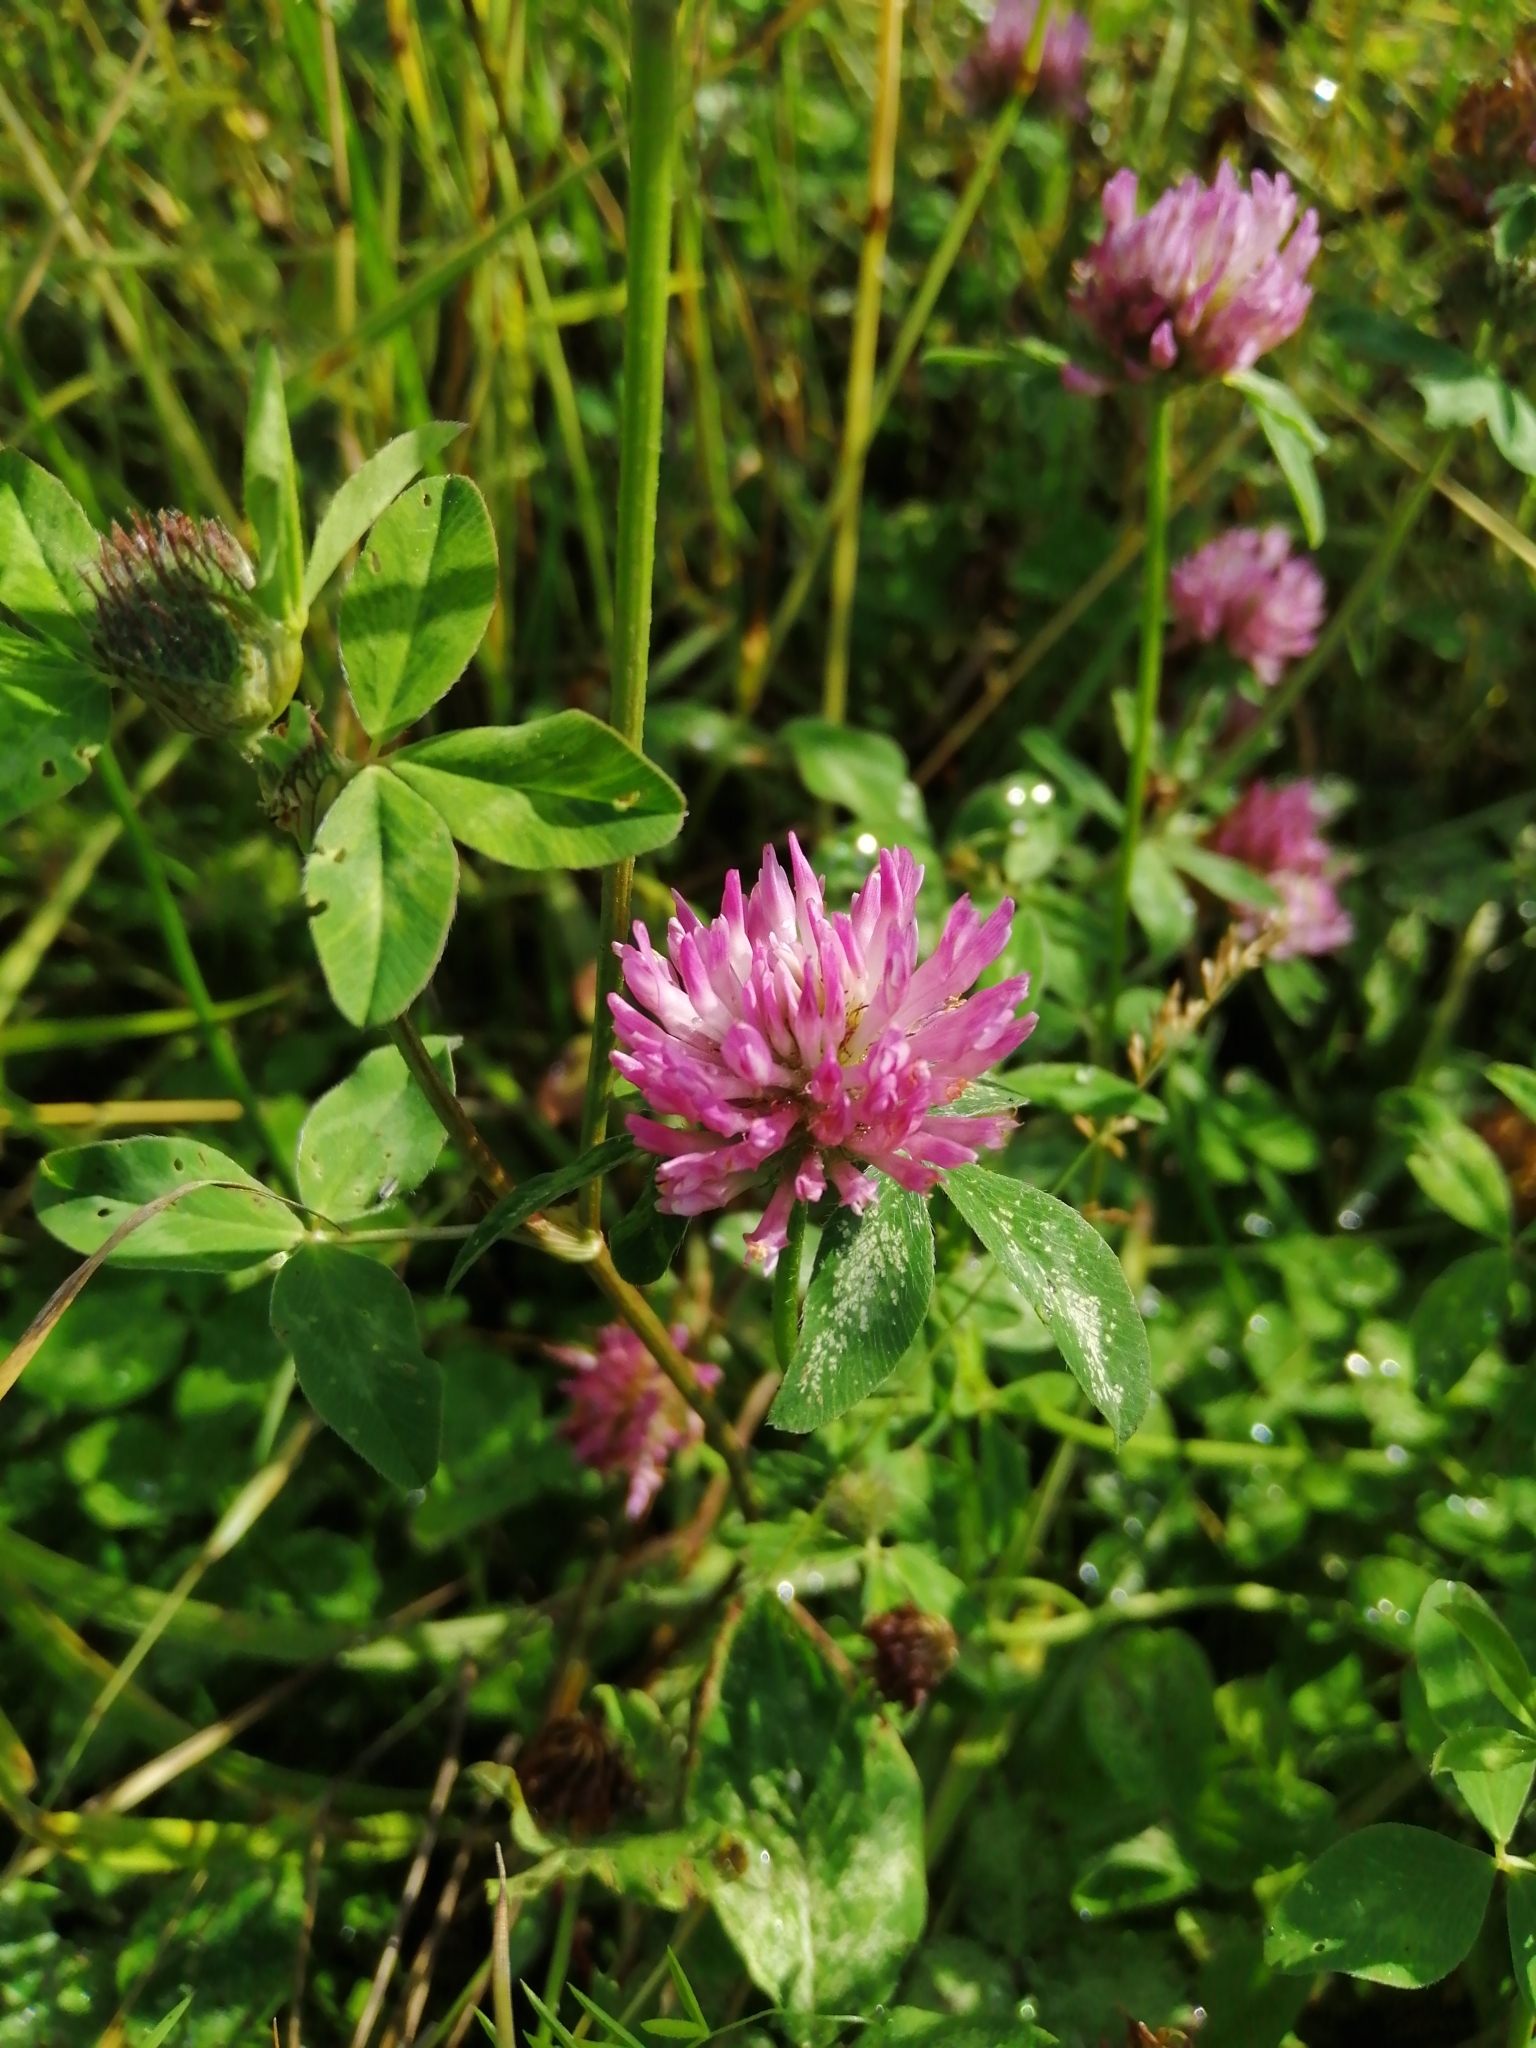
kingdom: Plantae
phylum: Tracheophyta
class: Magnoliopsida
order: Fabales
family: Fabaceae
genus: Trifolium
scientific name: Trifolium pratense
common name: Red clover
